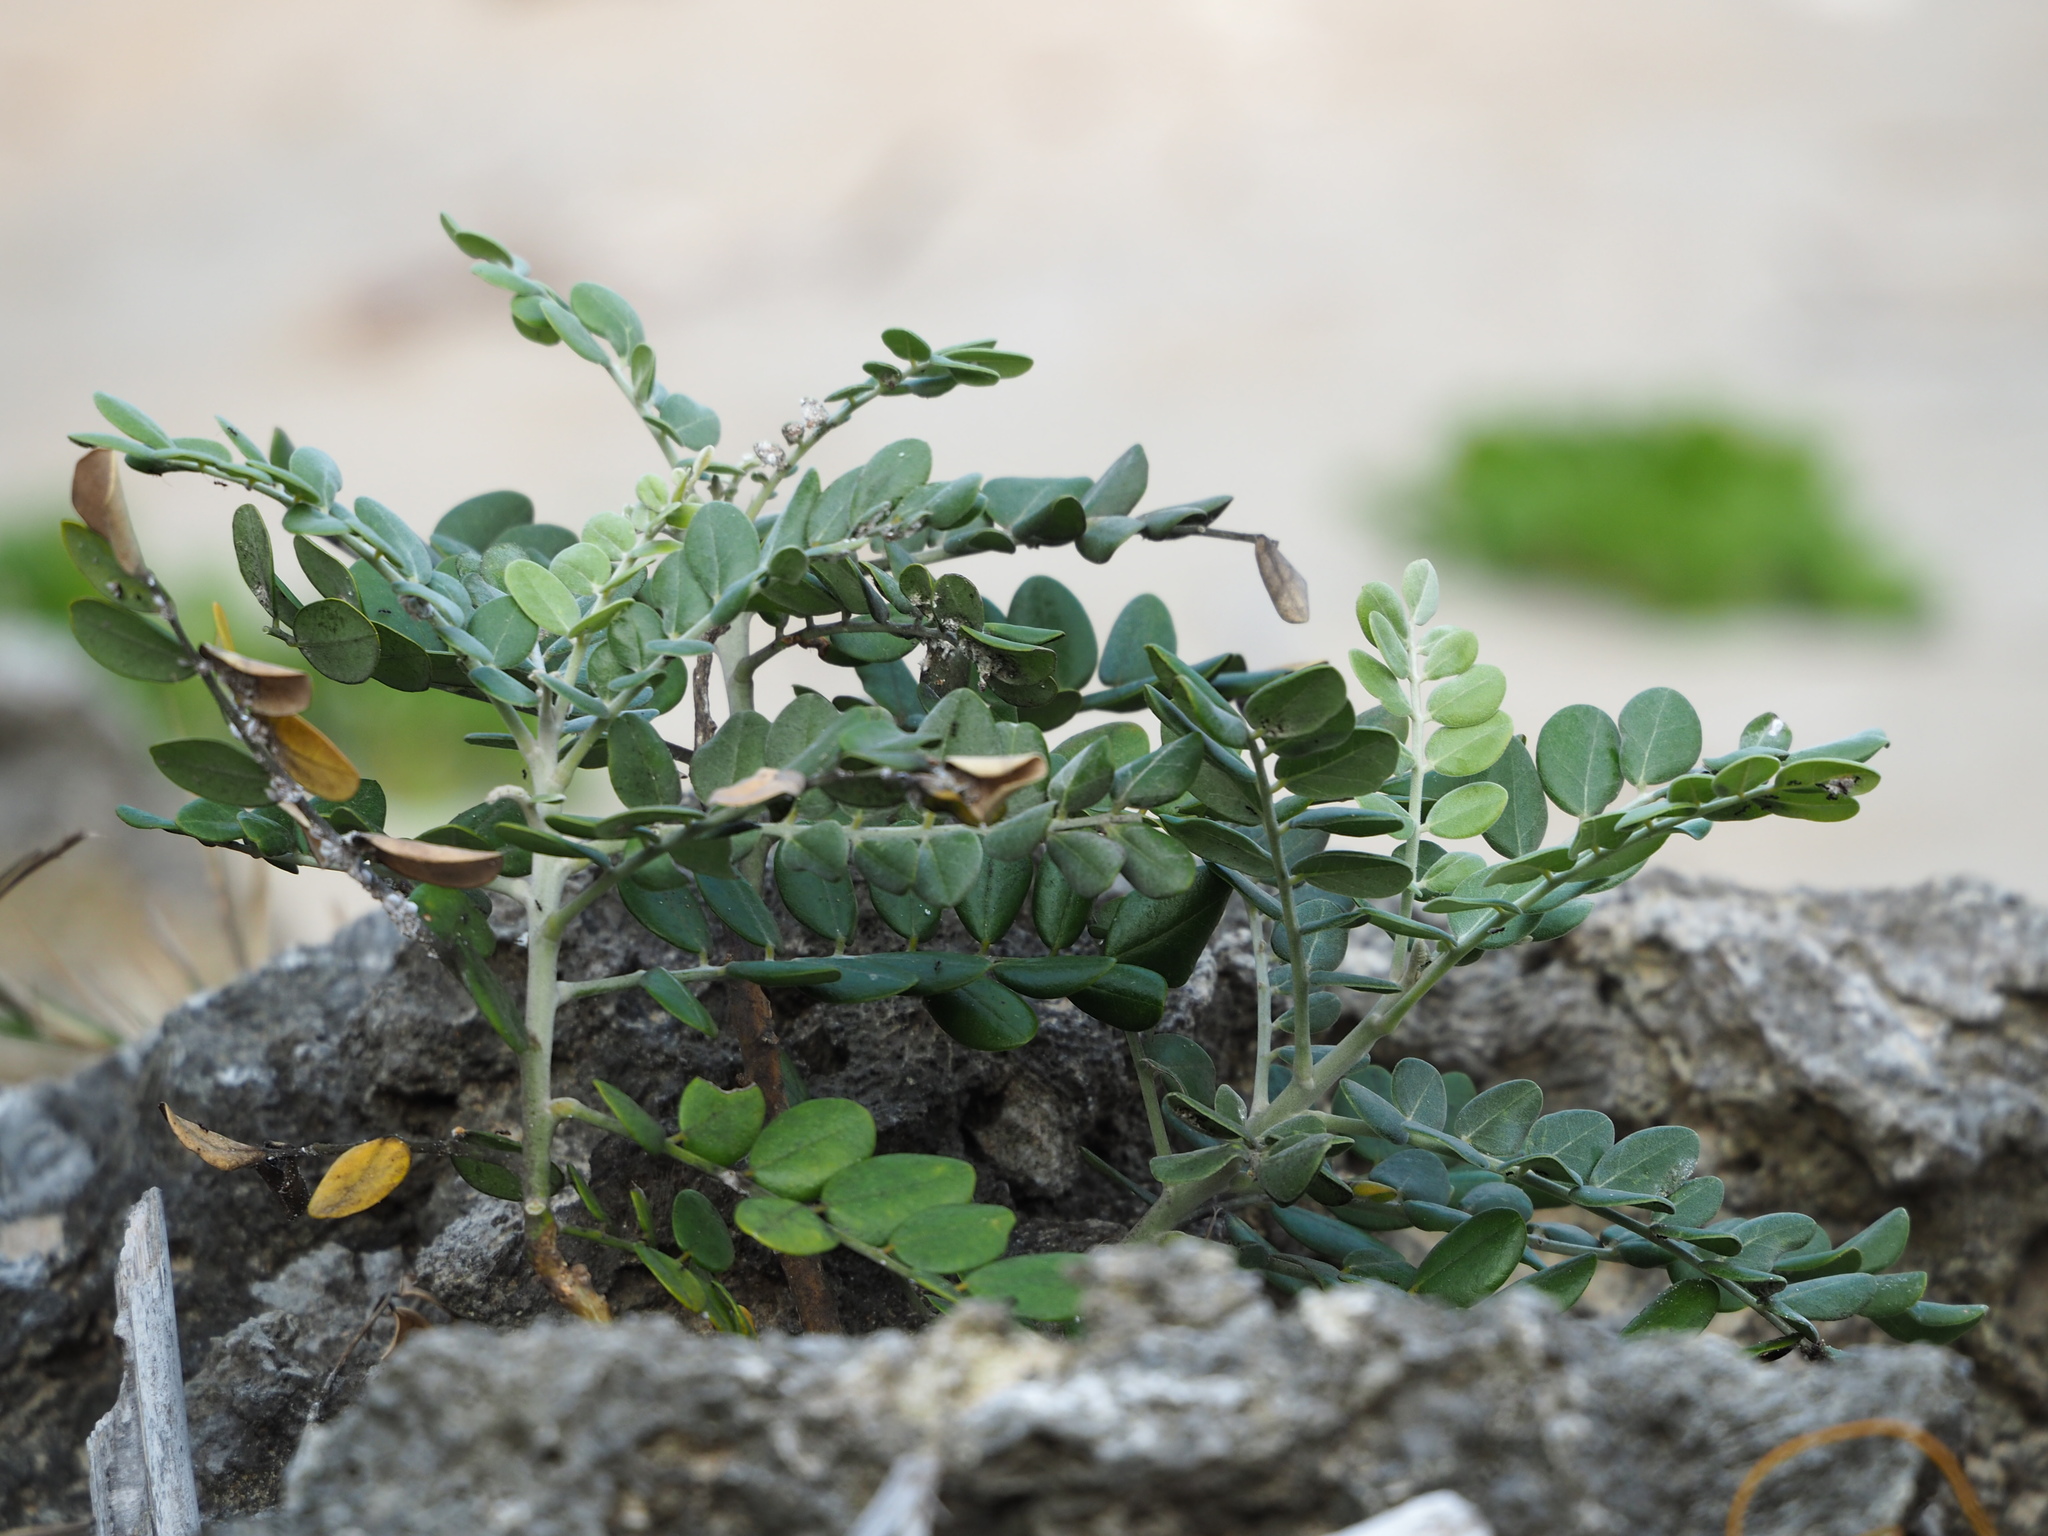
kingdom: Plantae
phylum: Tracheophyta
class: Magnoliopsida
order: Fabales
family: Fabaceae
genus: Sophora
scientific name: Sophora tomentosa
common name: Yellow necklacepod
